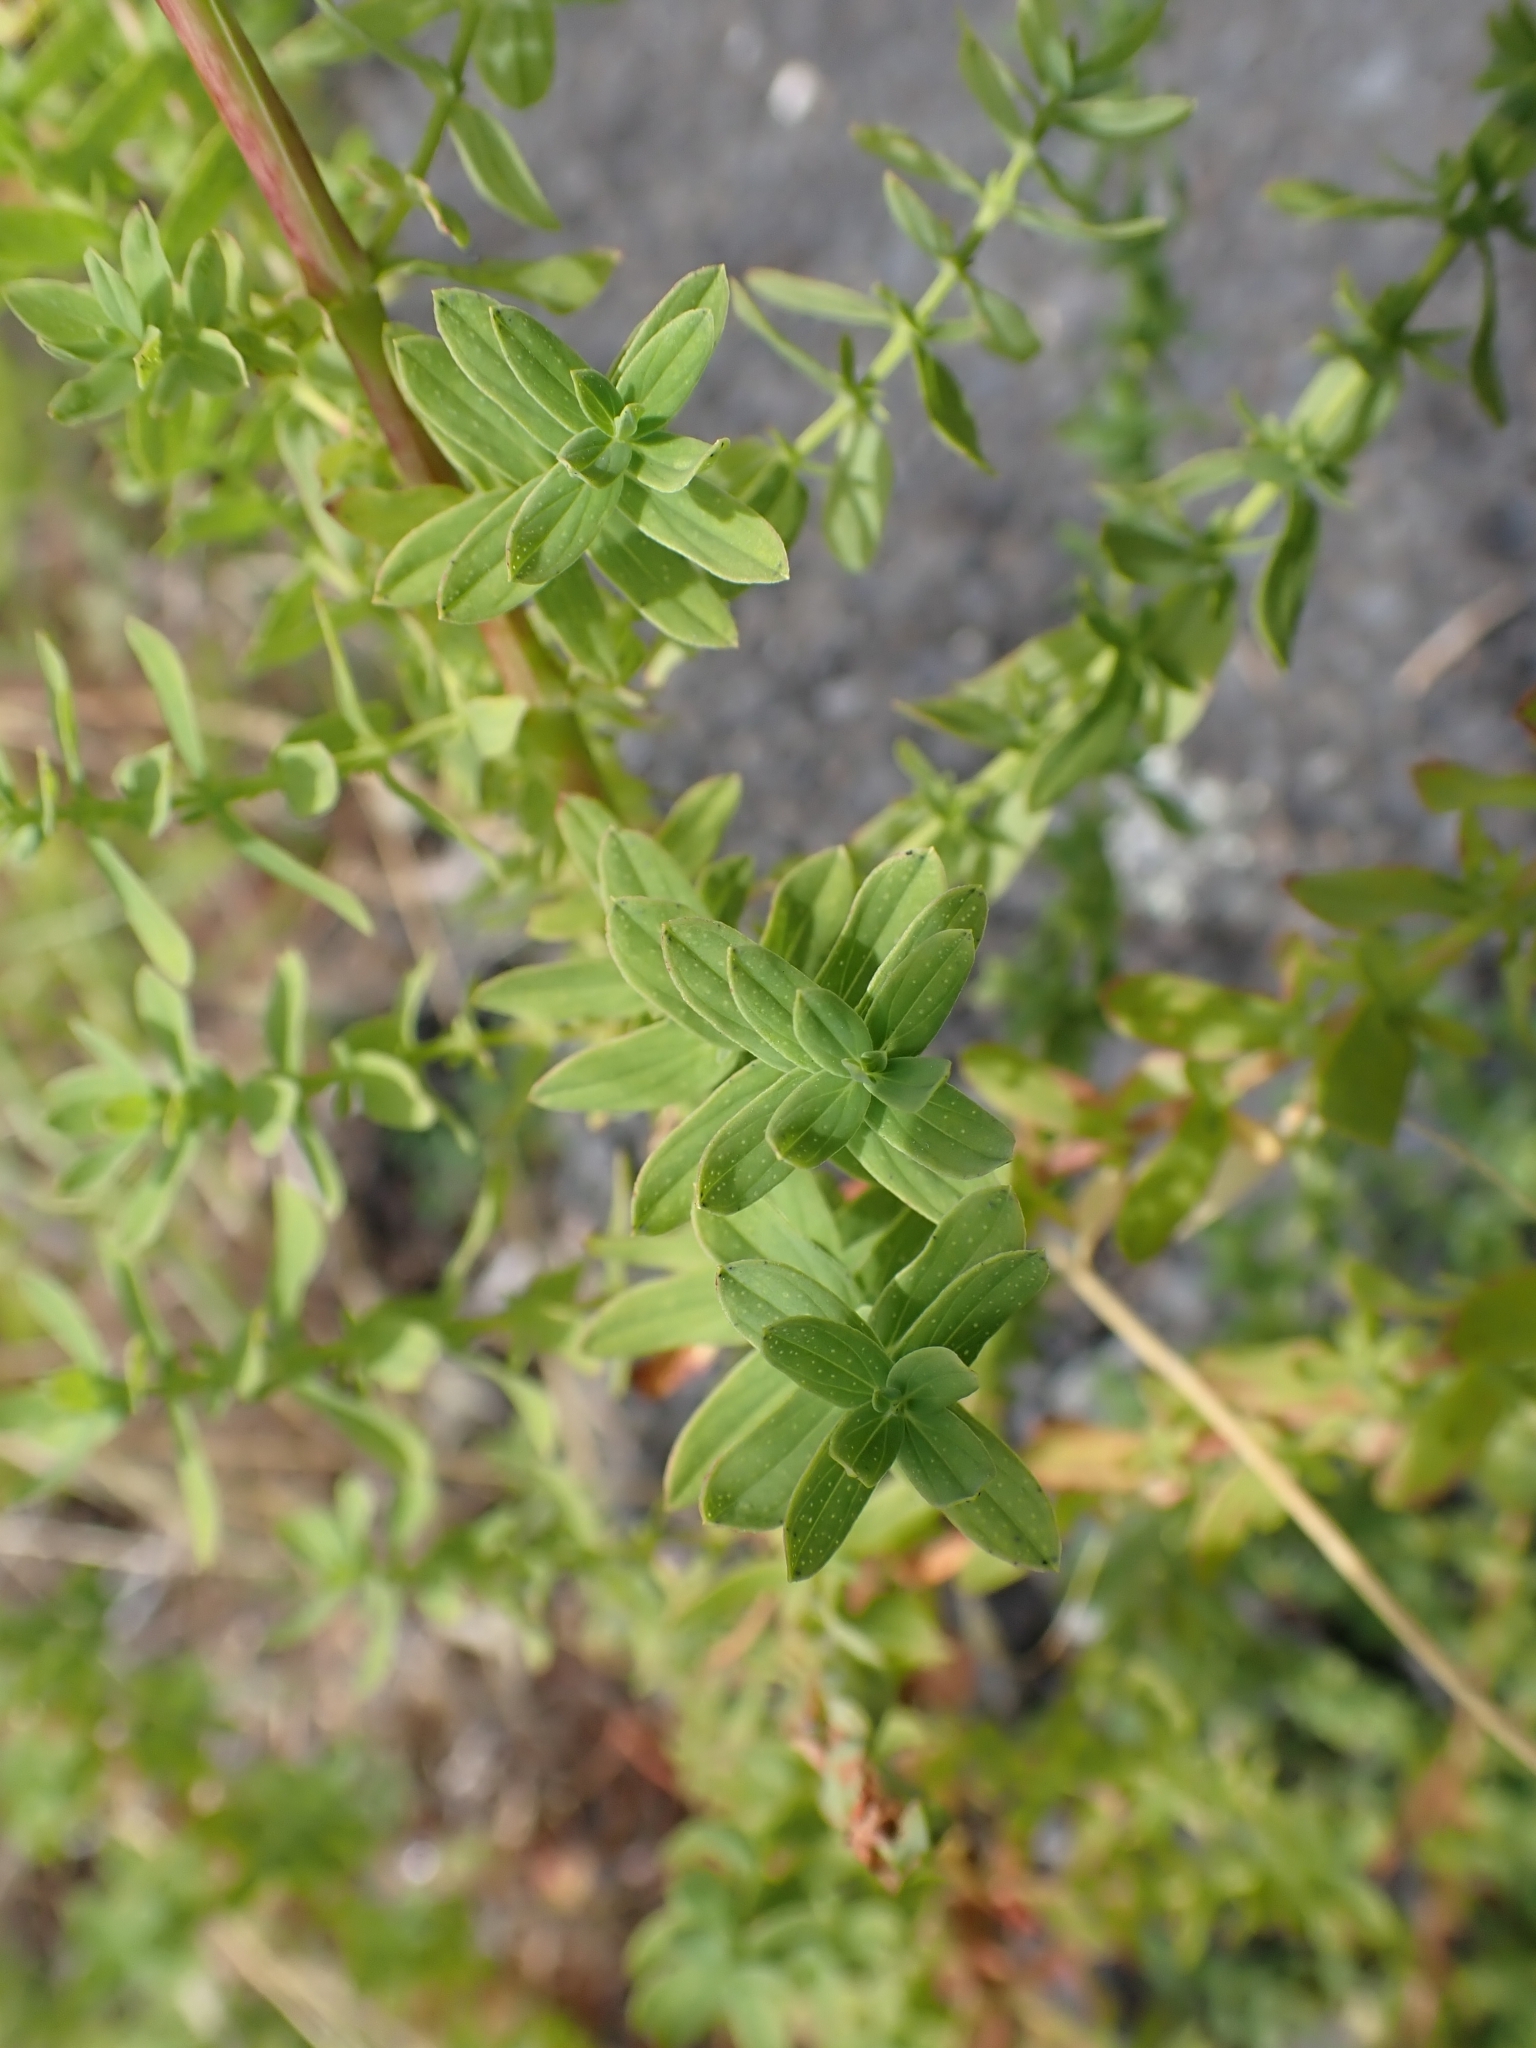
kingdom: Plantae
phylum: Tracheophyta
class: Magnoliopsida
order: Malpighiales
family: Hypericaceae
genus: Hypericum
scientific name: Hypericum perforatum
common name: Common st. johnswort
